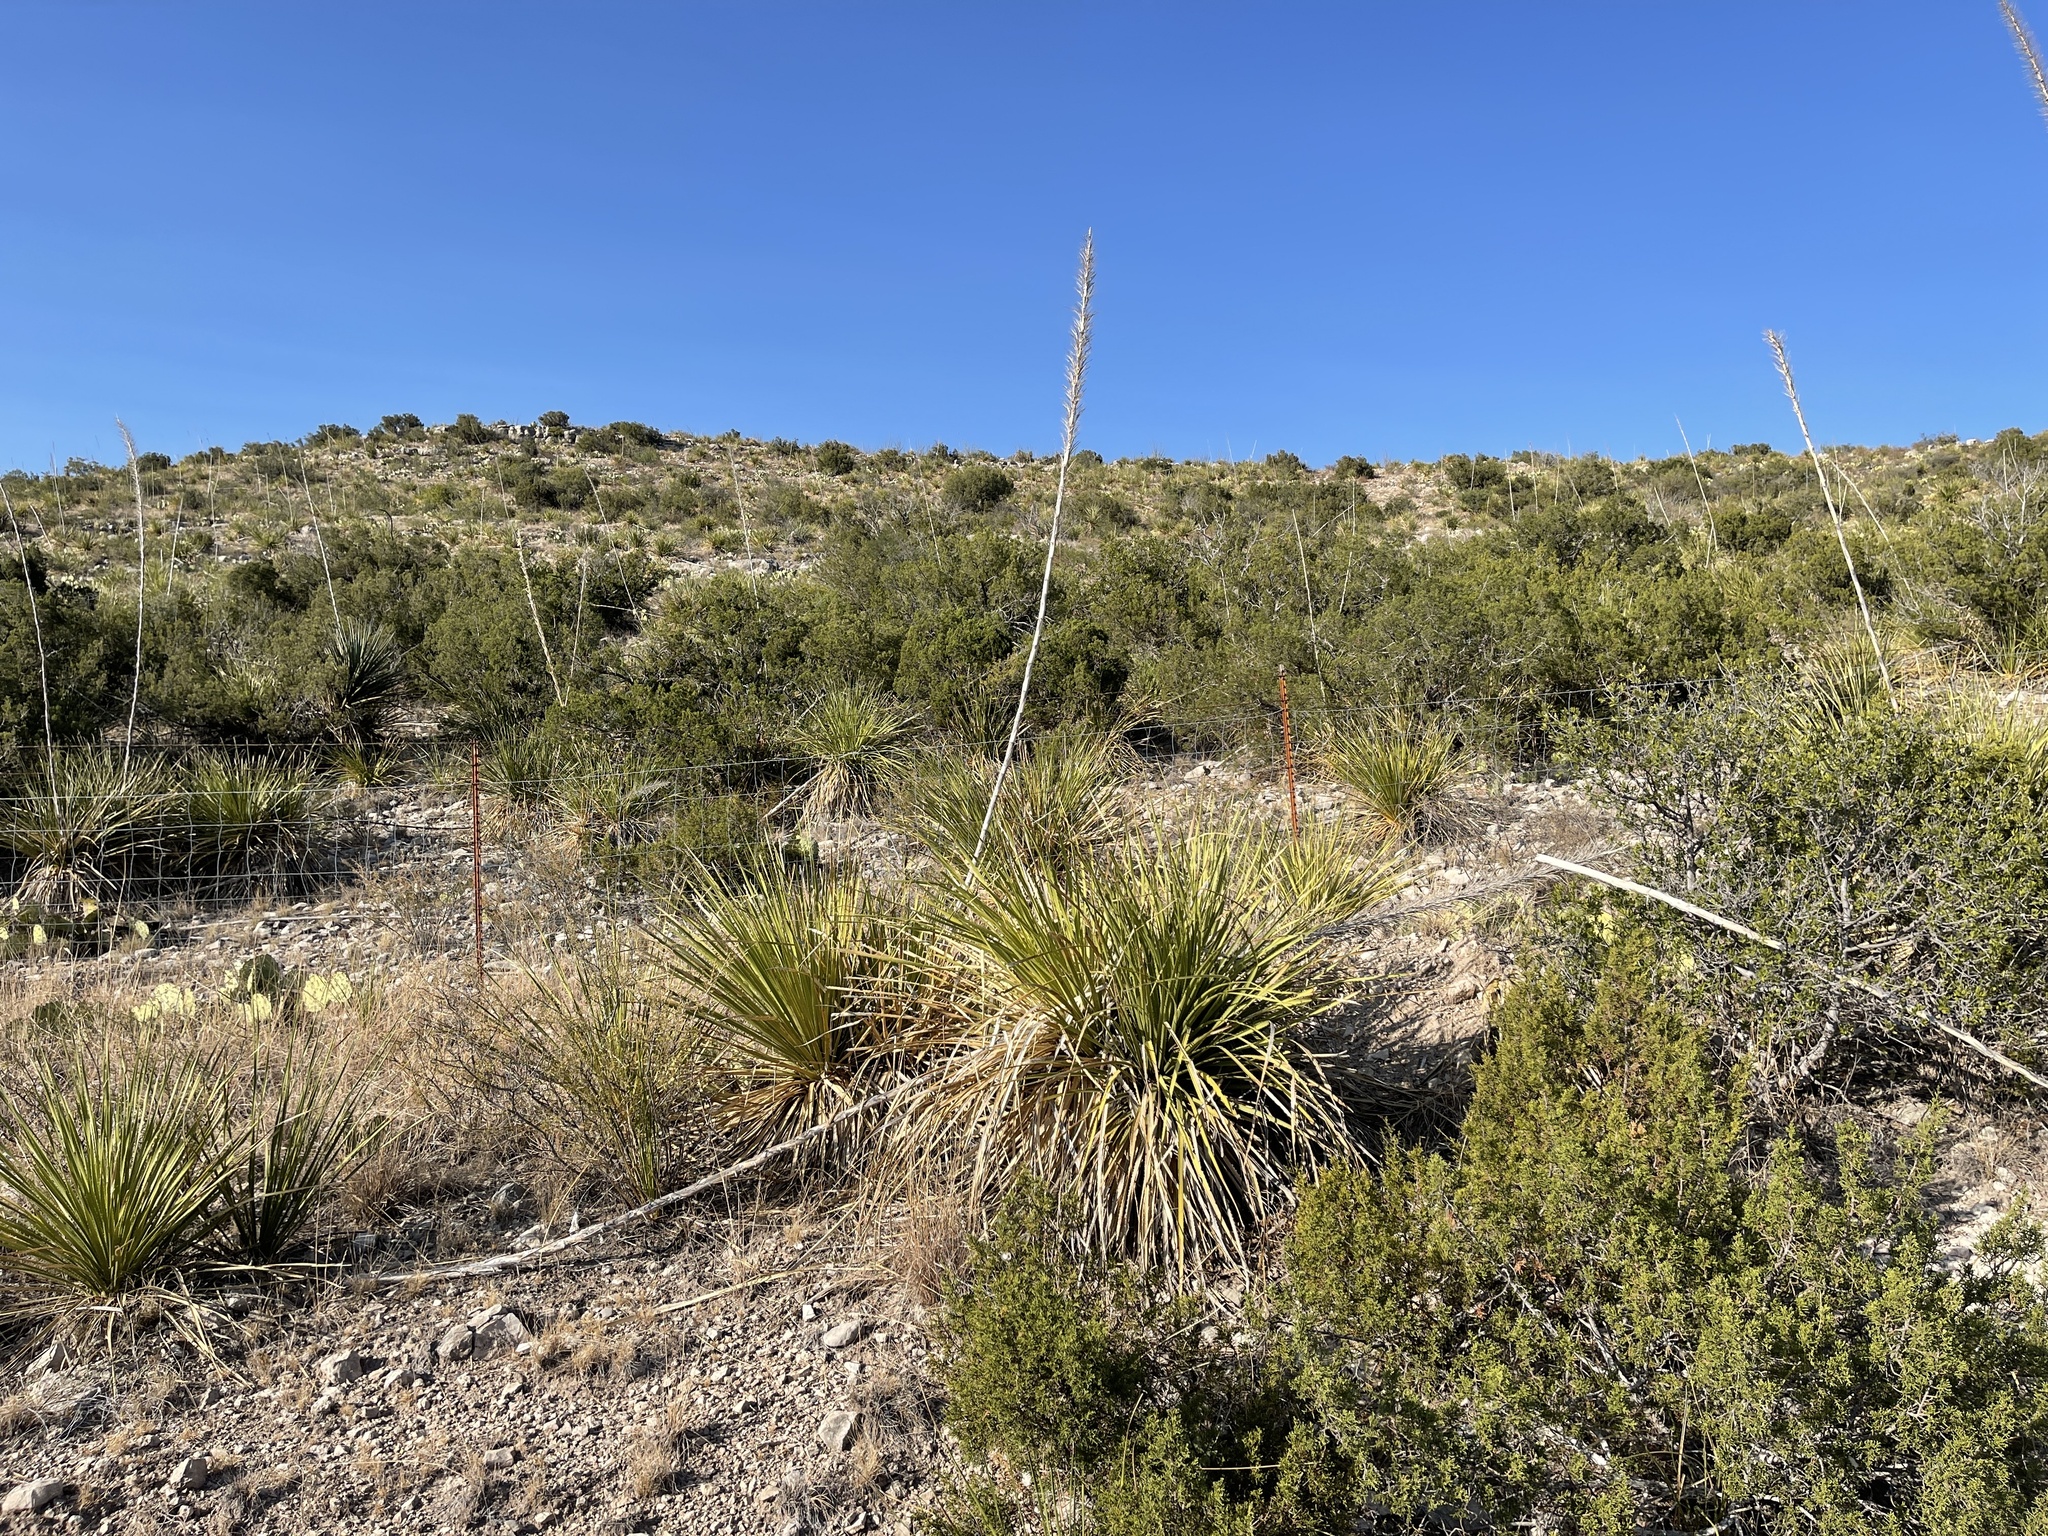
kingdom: Plantae
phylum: Tracheophyta
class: Liliopsida
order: Asparagales
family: Asparagaceae
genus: Dasylirion
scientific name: Dasylirion texanum
